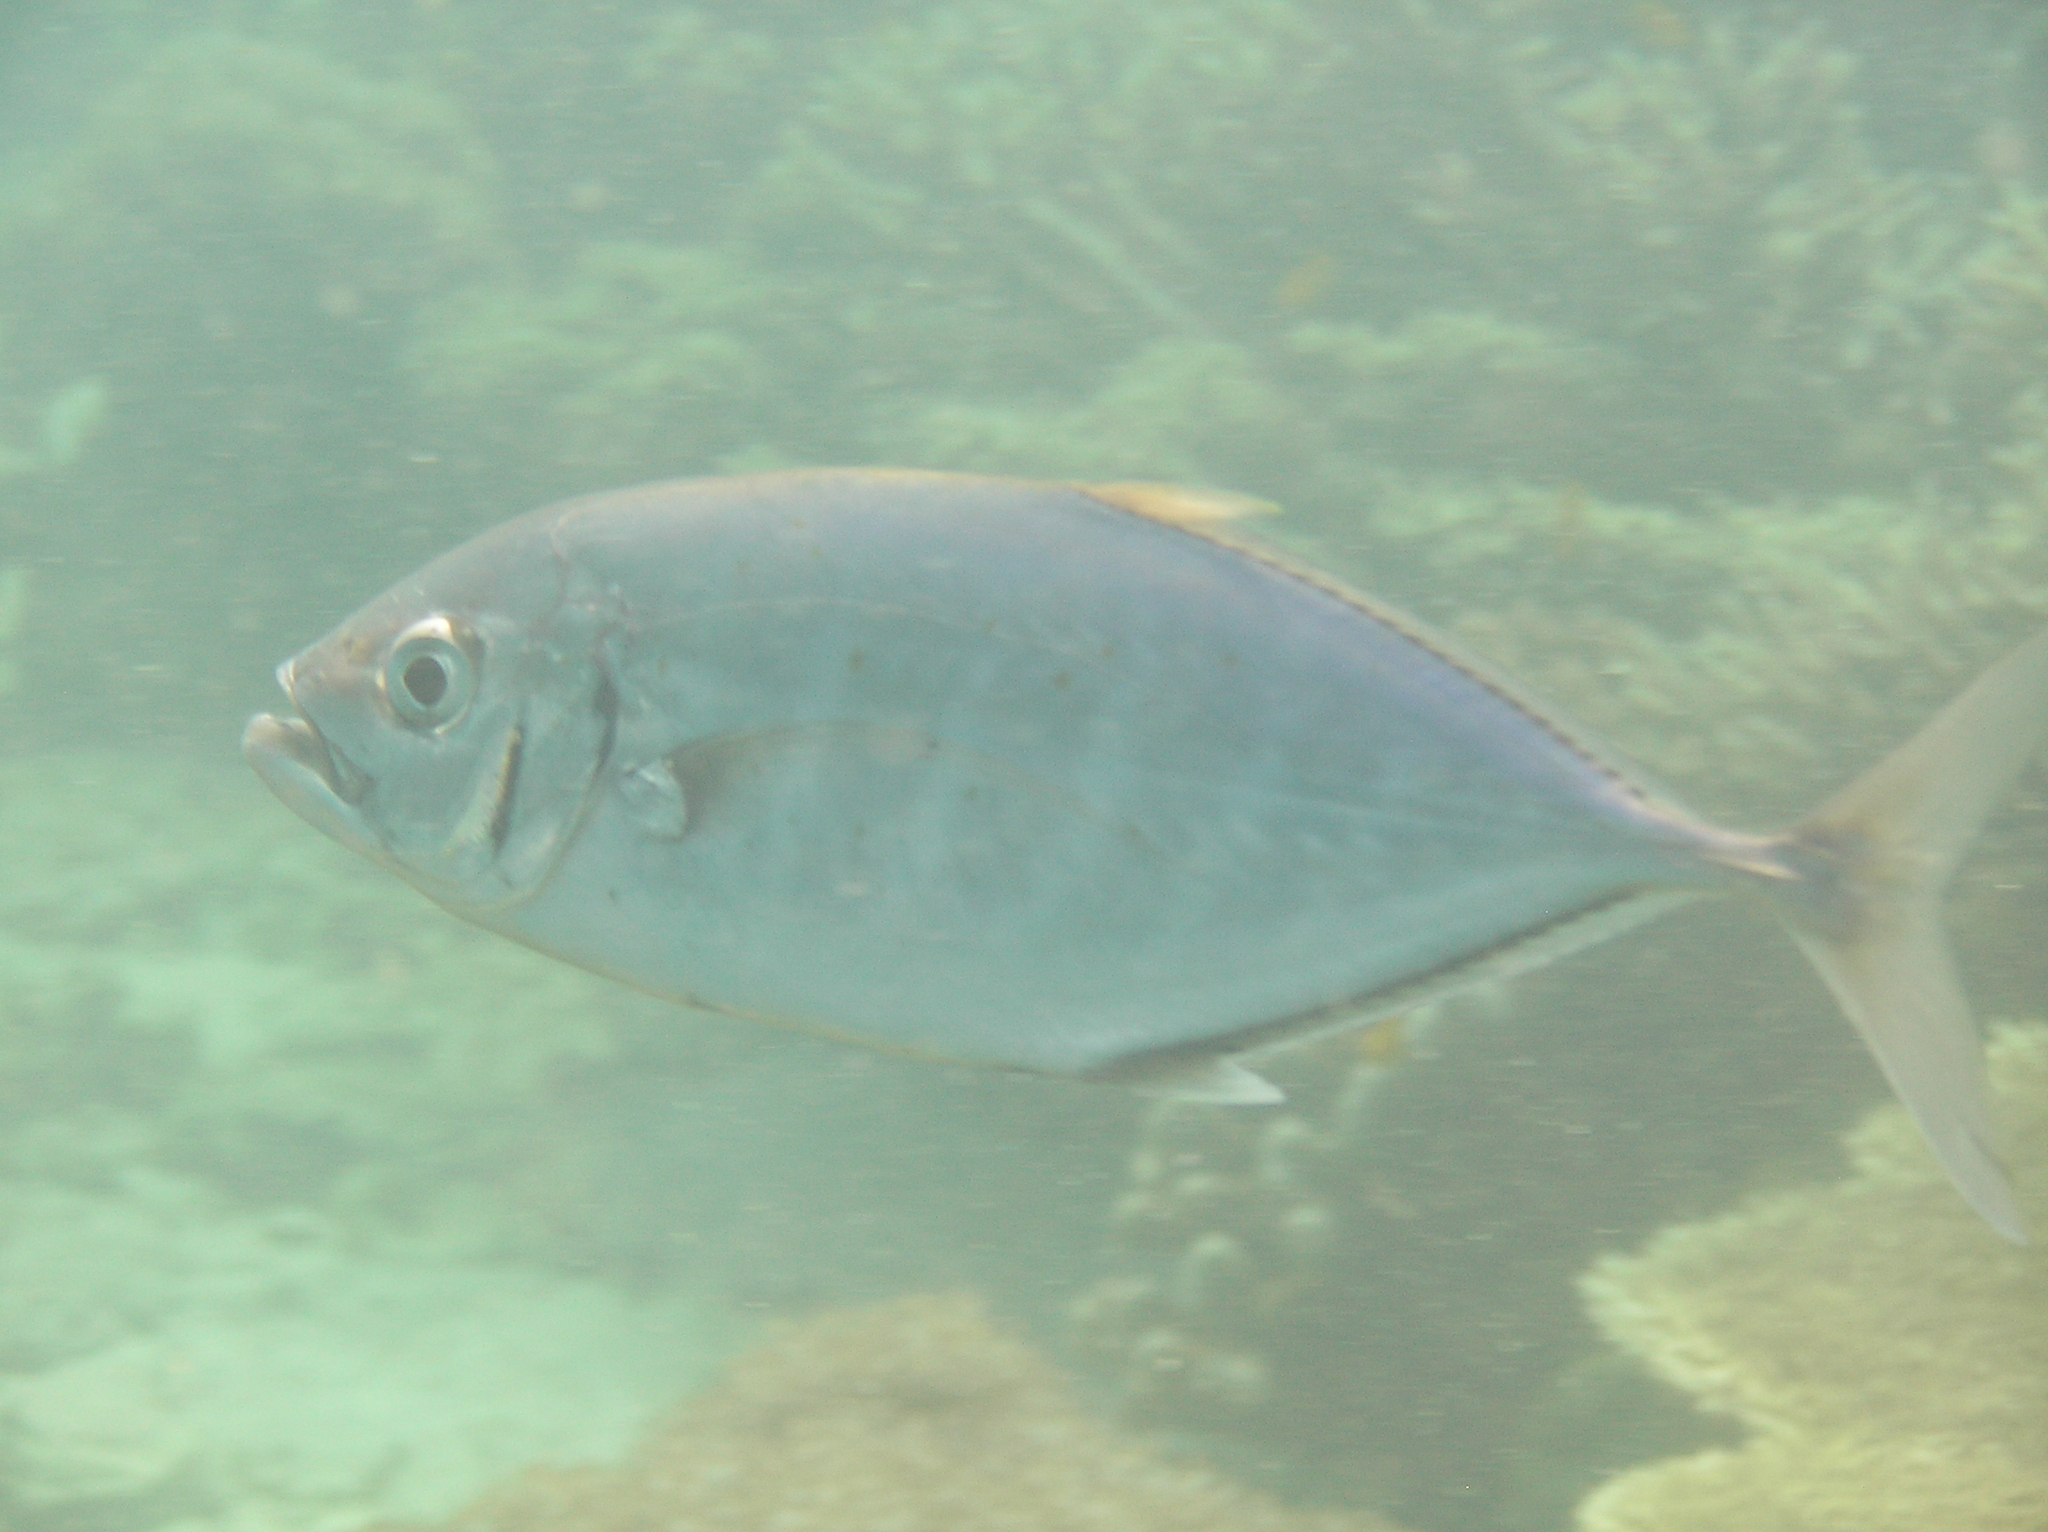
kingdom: Animalia
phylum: Chordata
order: Perciformes
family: Carangidae
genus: Craterognathus
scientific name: Craterognathus plagiotaenia
